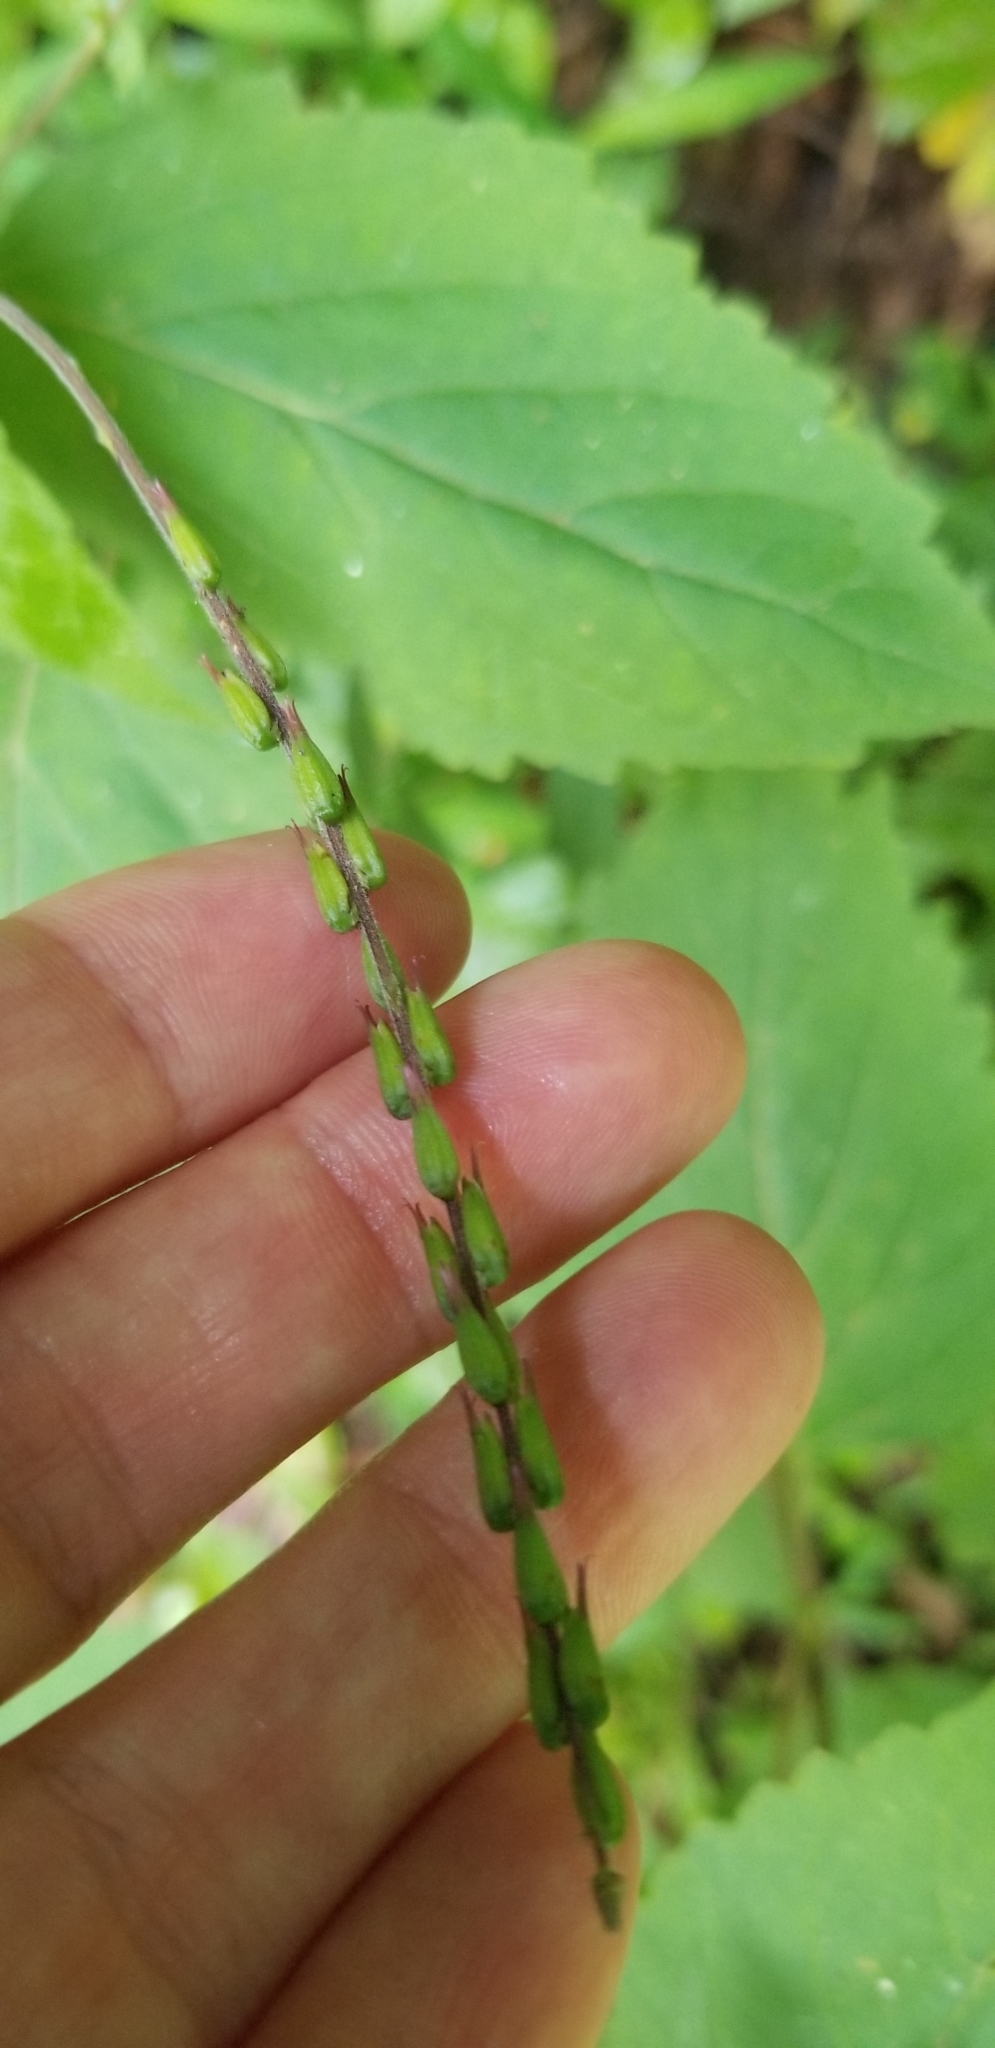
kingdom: Plantae
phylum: Tracheophyta
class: Magnoliopsida
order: Lamiales
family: Phrymaceae
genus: Phryma
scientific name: Phryma leptostachya
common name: American lopseed
